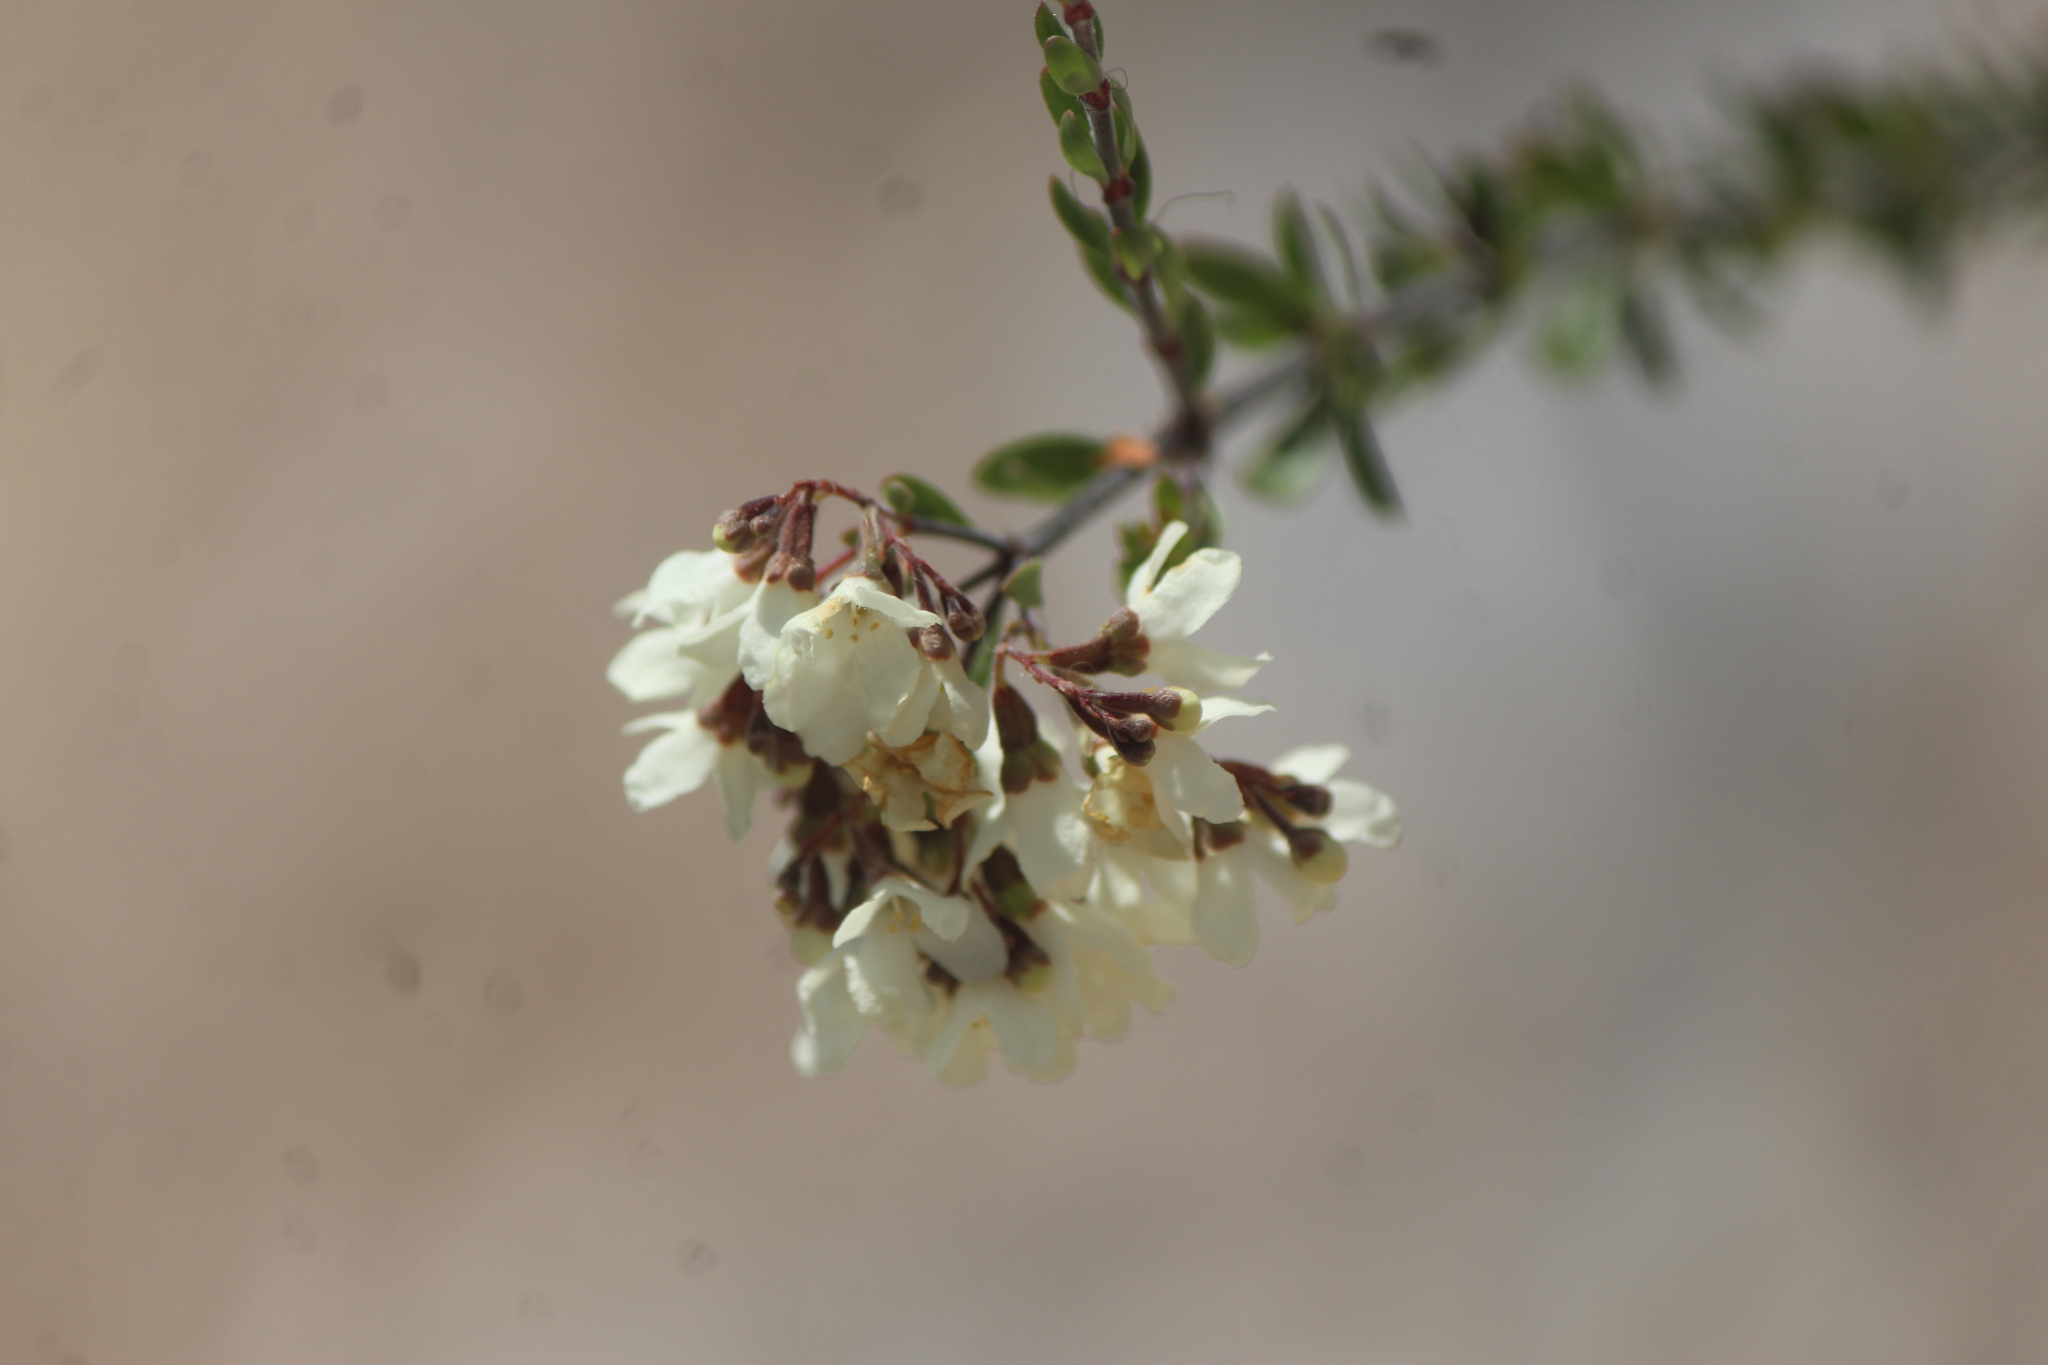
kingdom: Plantae
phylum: Tracheophyta
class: Magnoliopsida
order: Gentianales
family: Rubiaceae
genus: Machaonia
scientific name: Machaonia coulteri
